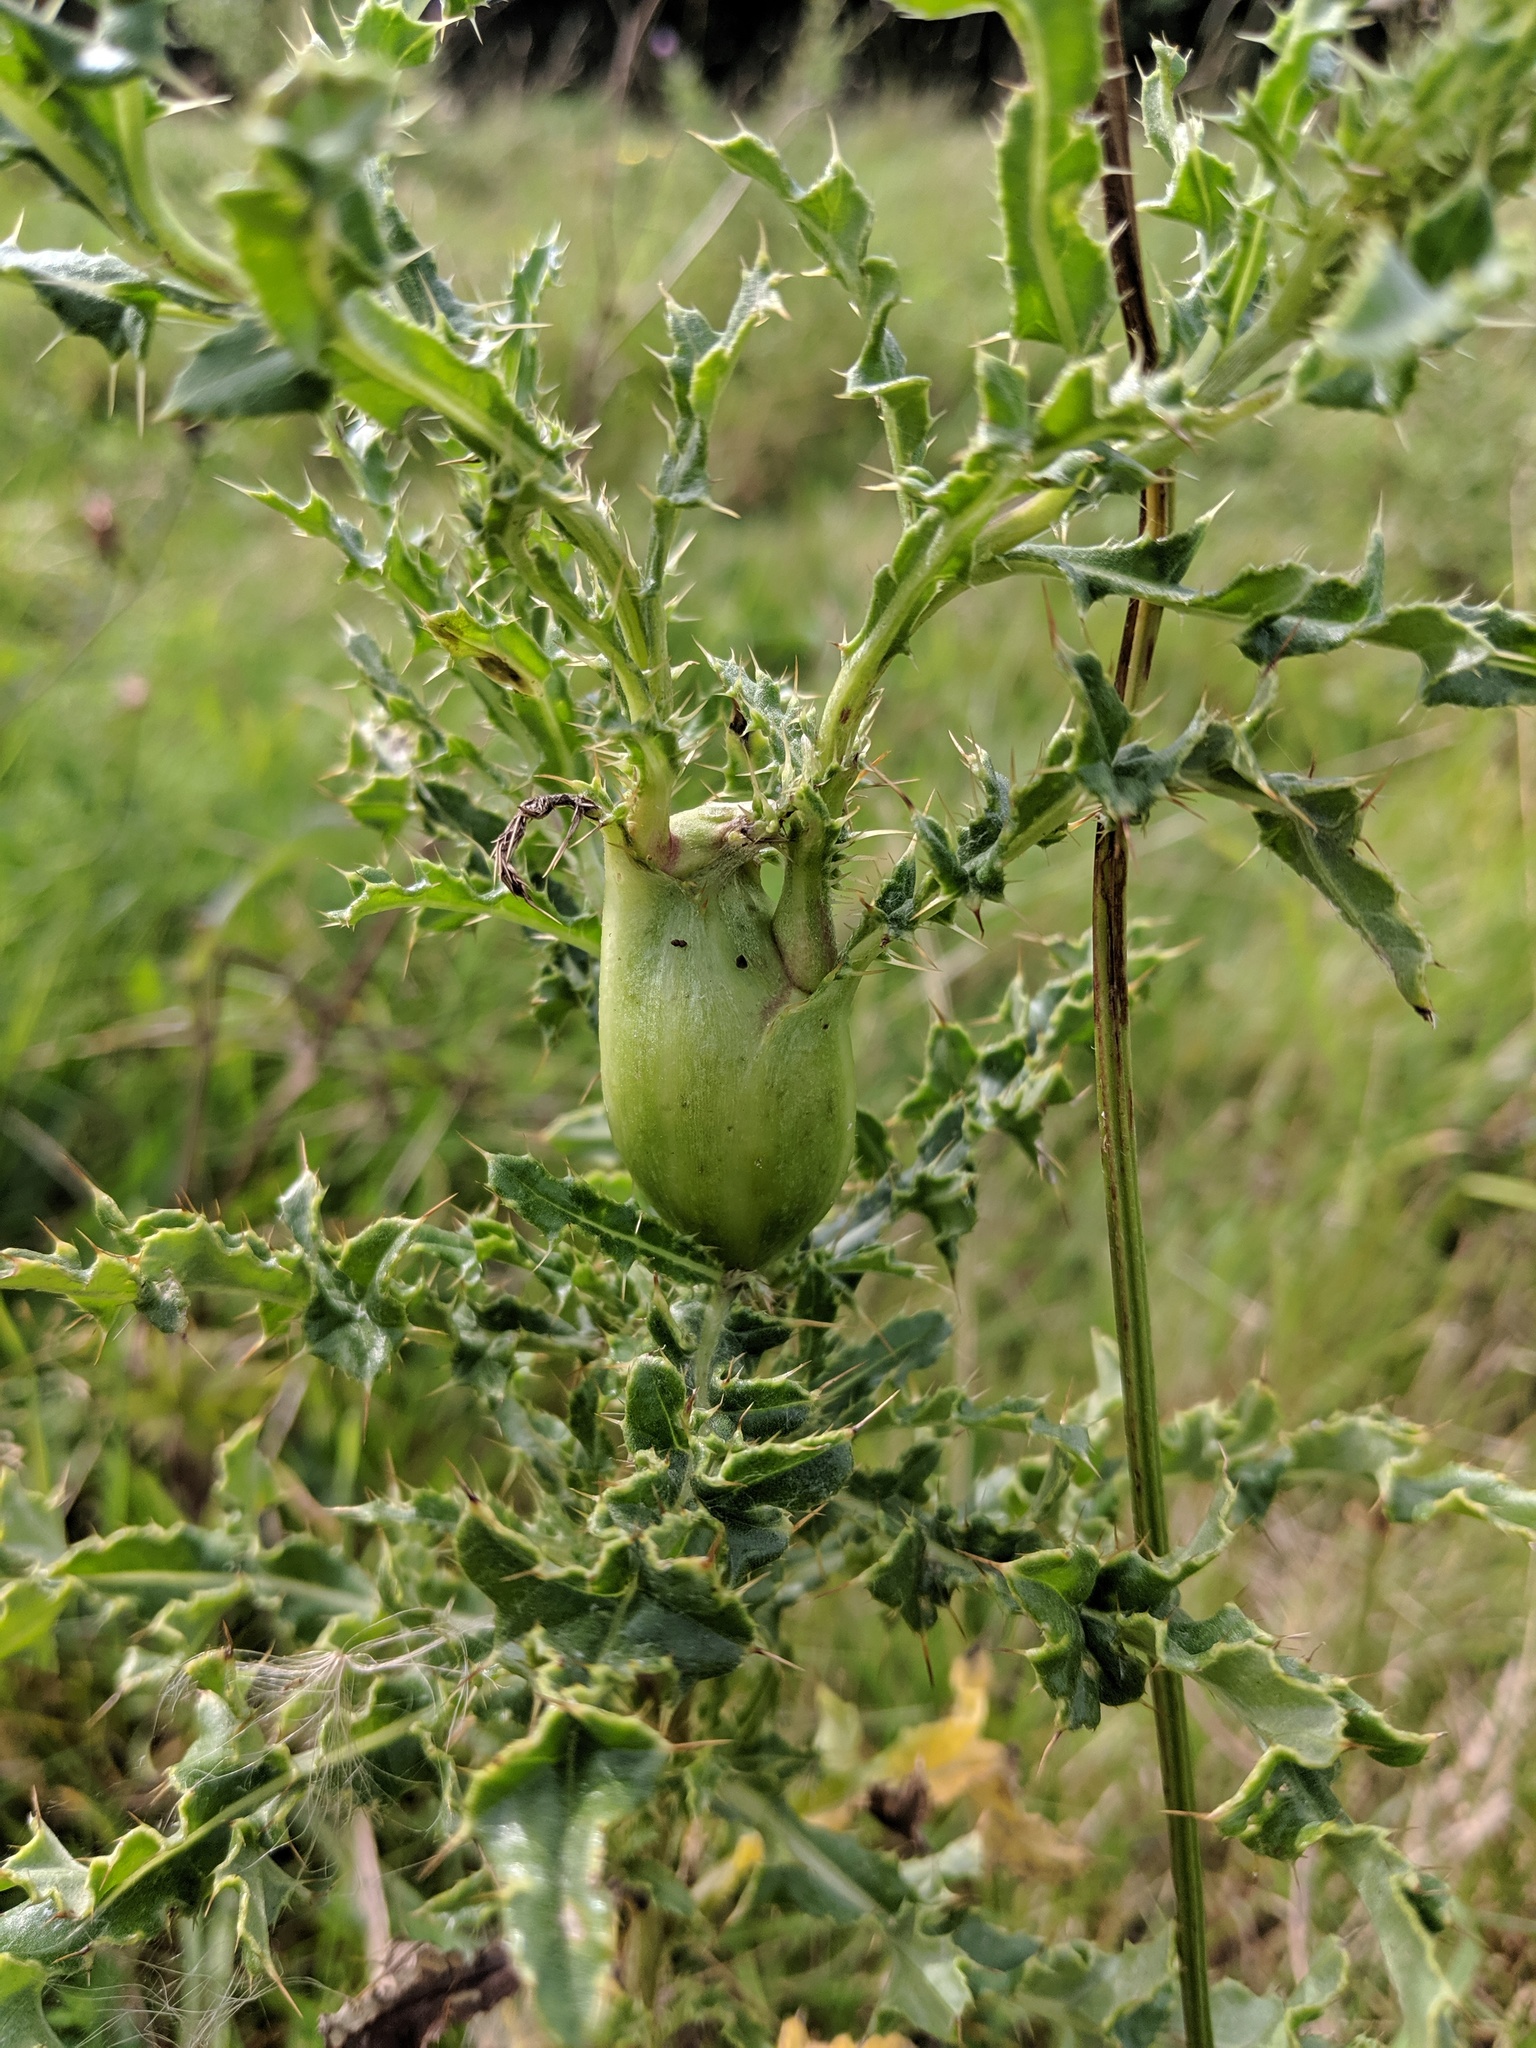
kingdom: Animalia
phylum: Arthropoda
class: Insecta
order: Diptera
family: Tephritidae
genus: Urophora
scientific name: Urophora cardui
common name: Fruit fly
